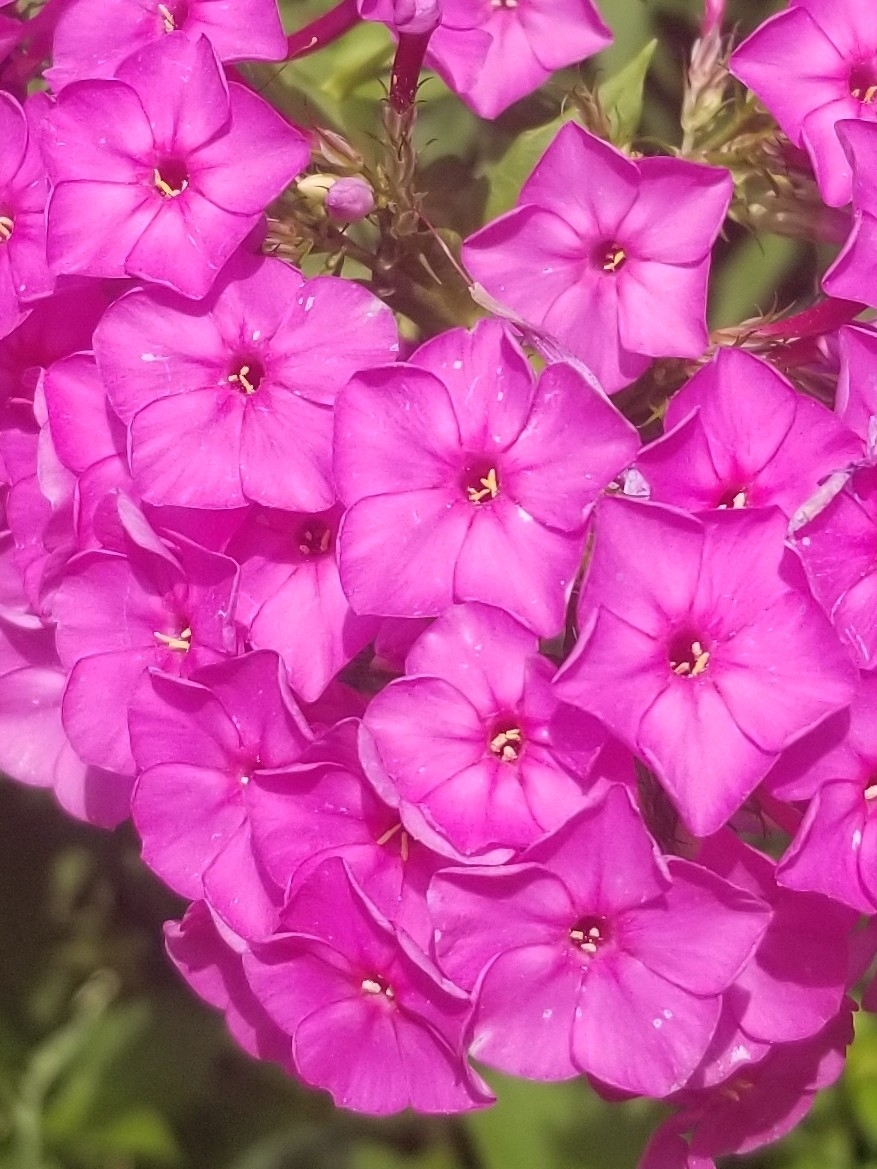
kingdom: Plantae
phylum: Tracheophyta
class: Magnoliopsida
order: Ericales
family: Polemoniaceae
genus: Phlox
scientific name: Phlox paniculata
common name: Fall phlox
